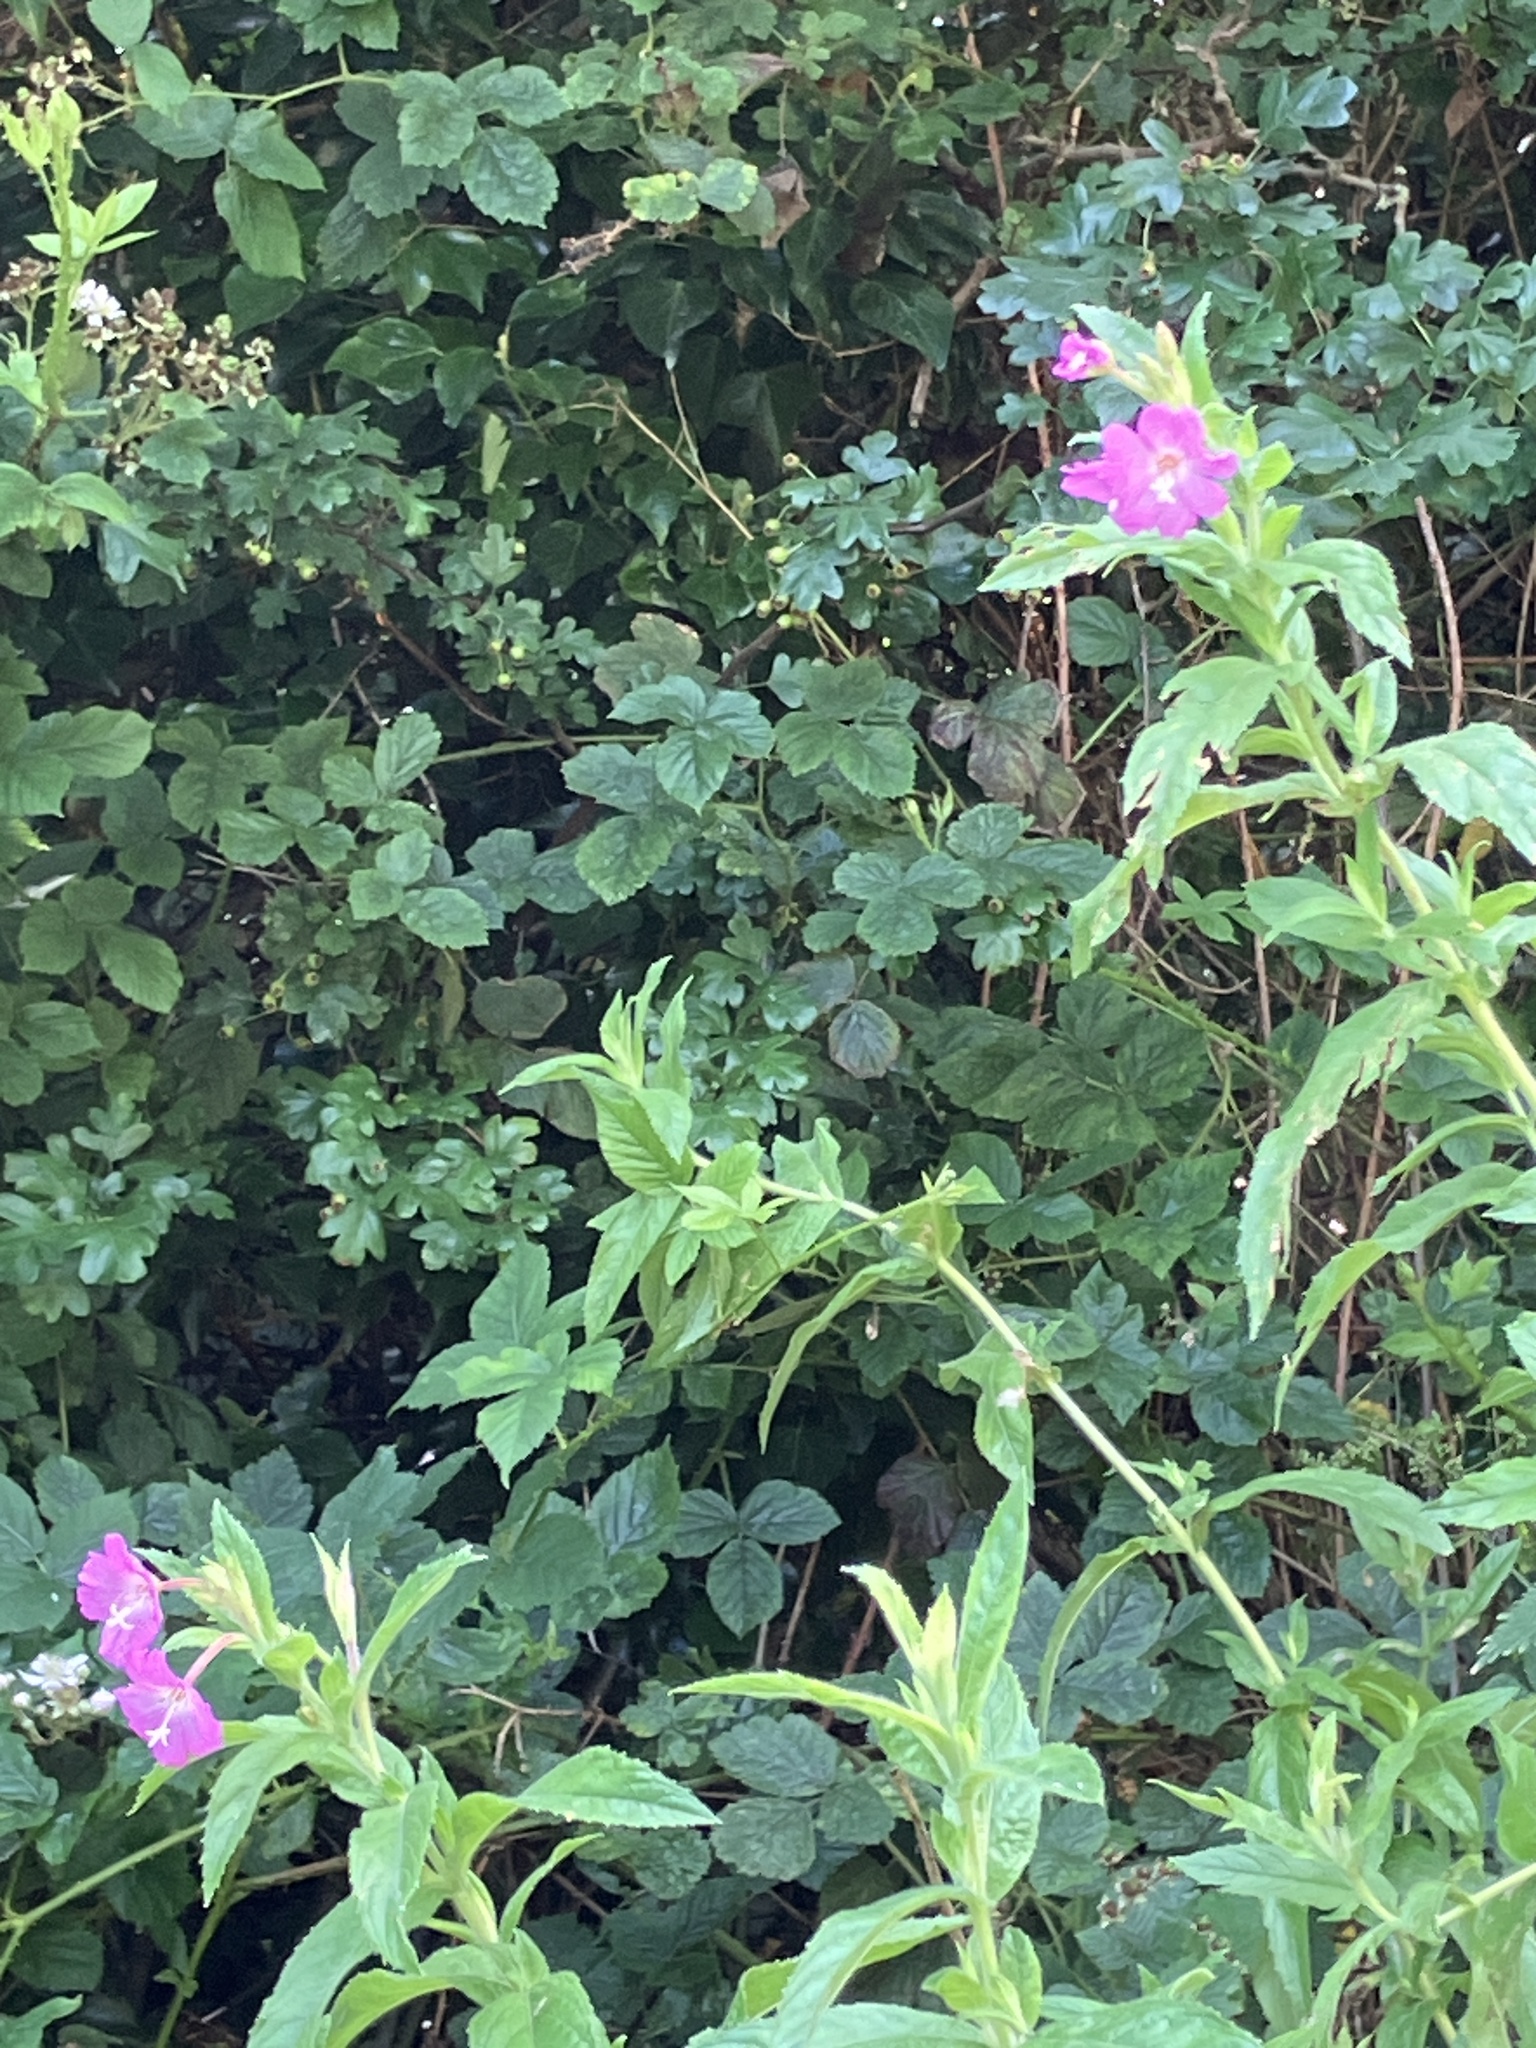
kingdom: Plantae
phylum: Tracheophyta
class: Magnoliopsida
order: Myrtales
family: Onagraceae
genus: Epilobium
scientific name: Epilobium hirsutum
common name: Great willowherb
